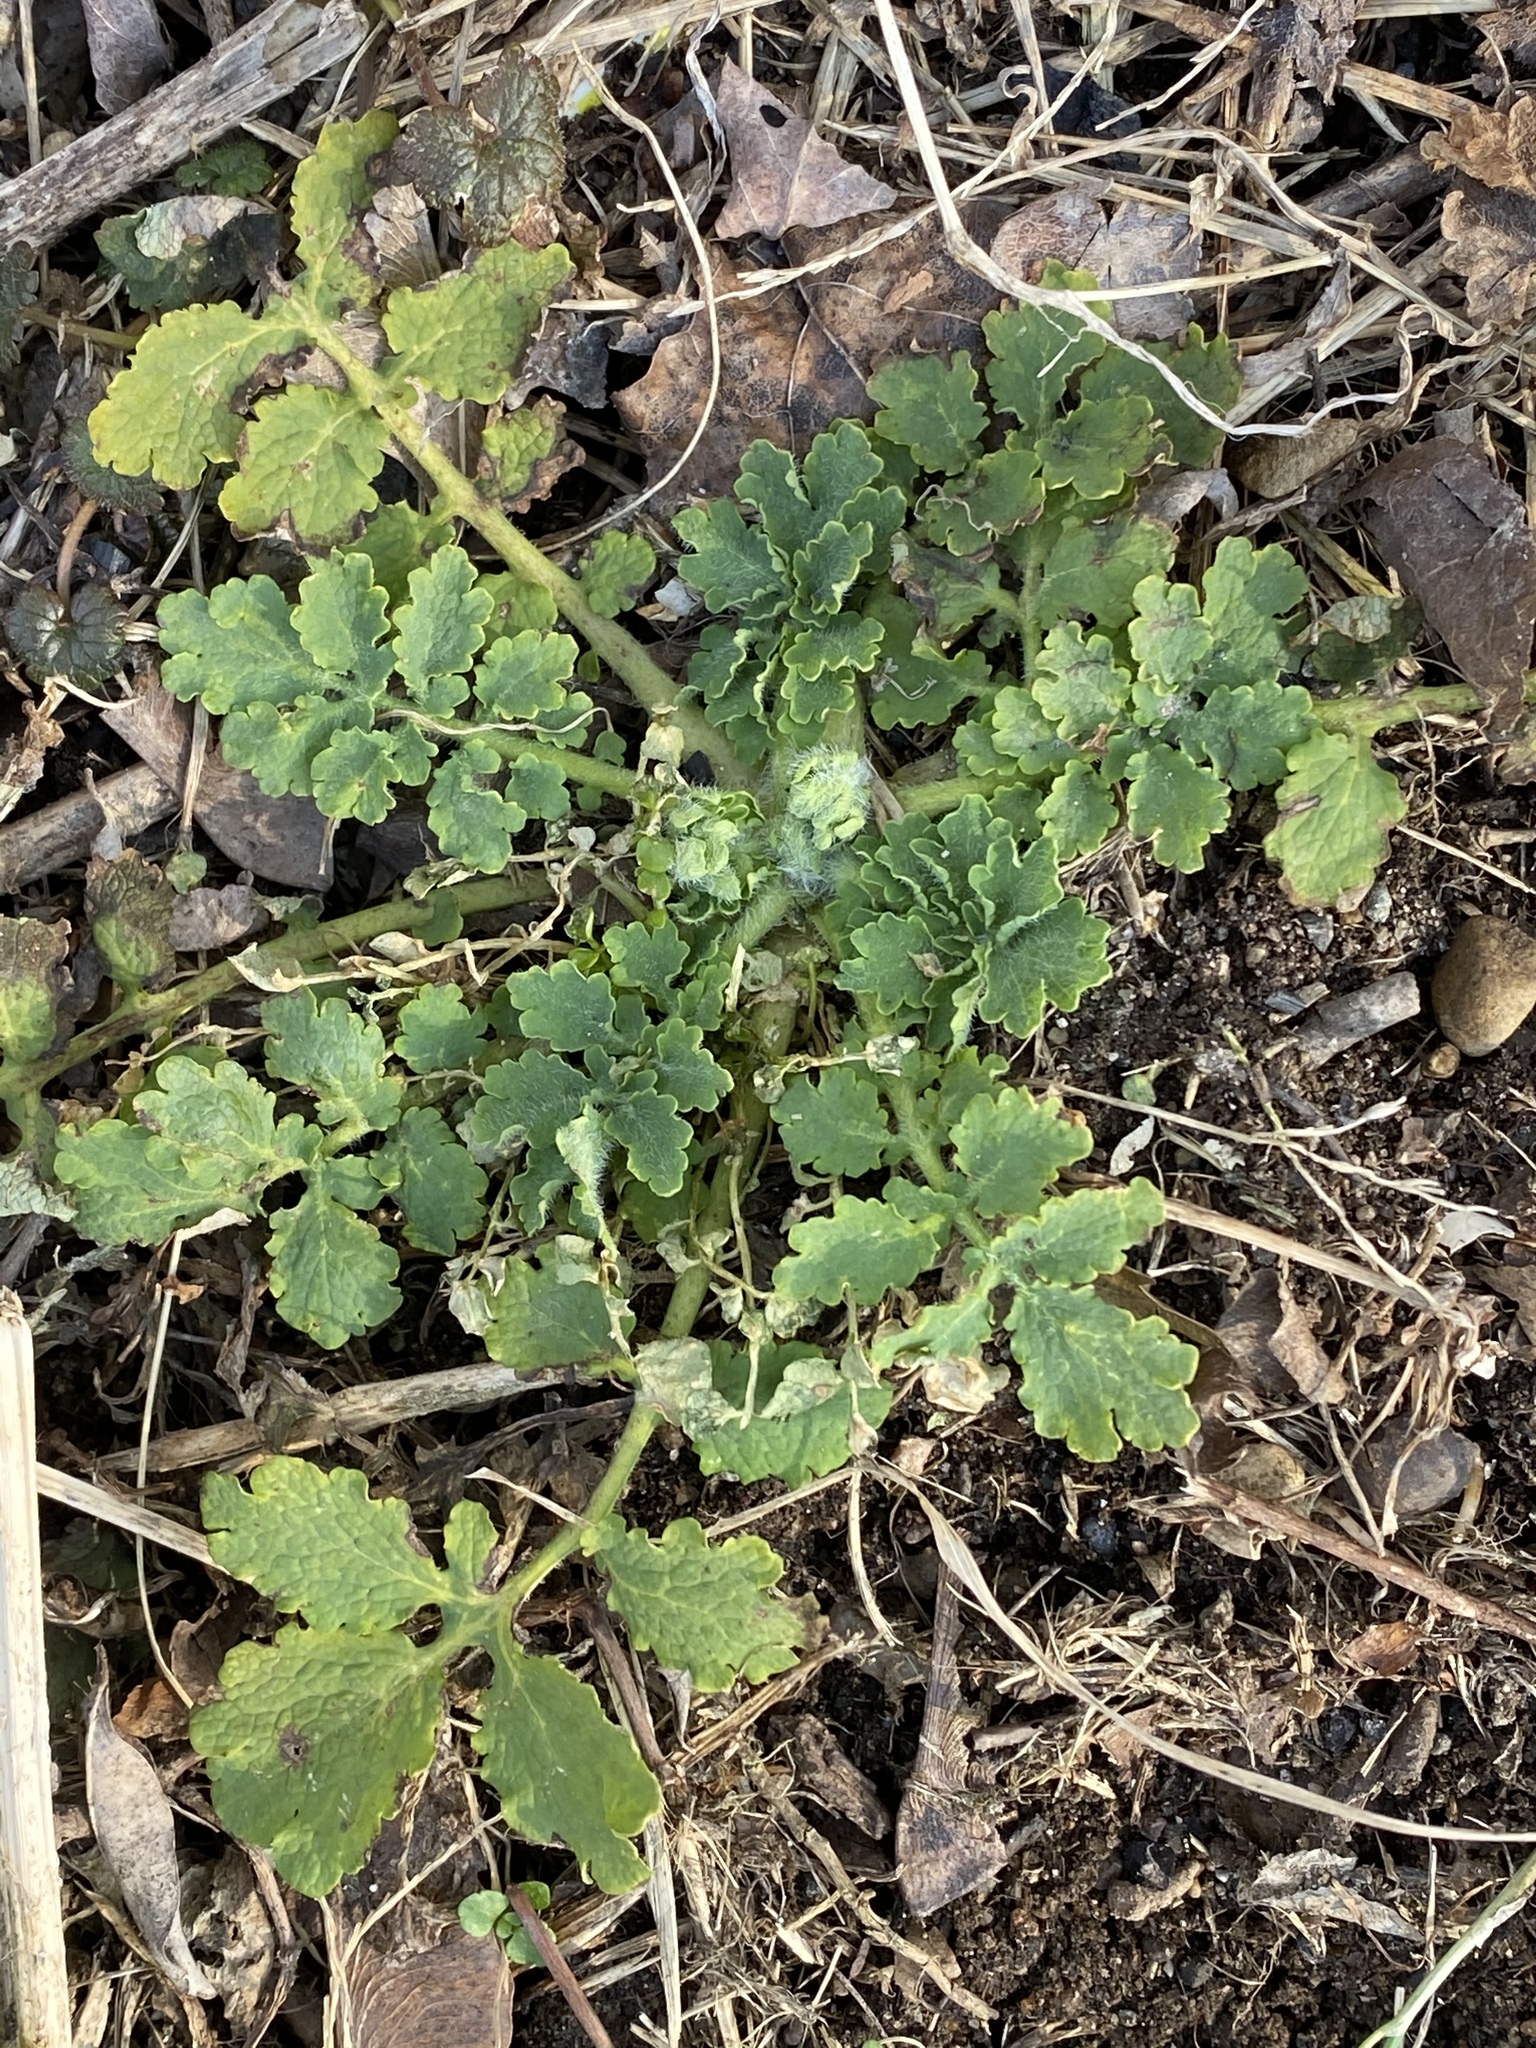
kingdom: Plantae
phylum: Tracheophyta
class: Magnoliopsida
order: Ranunculales
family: Papaveraceae
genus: Chelidonium
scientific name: Chelidonium majus
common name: Greater celandine
